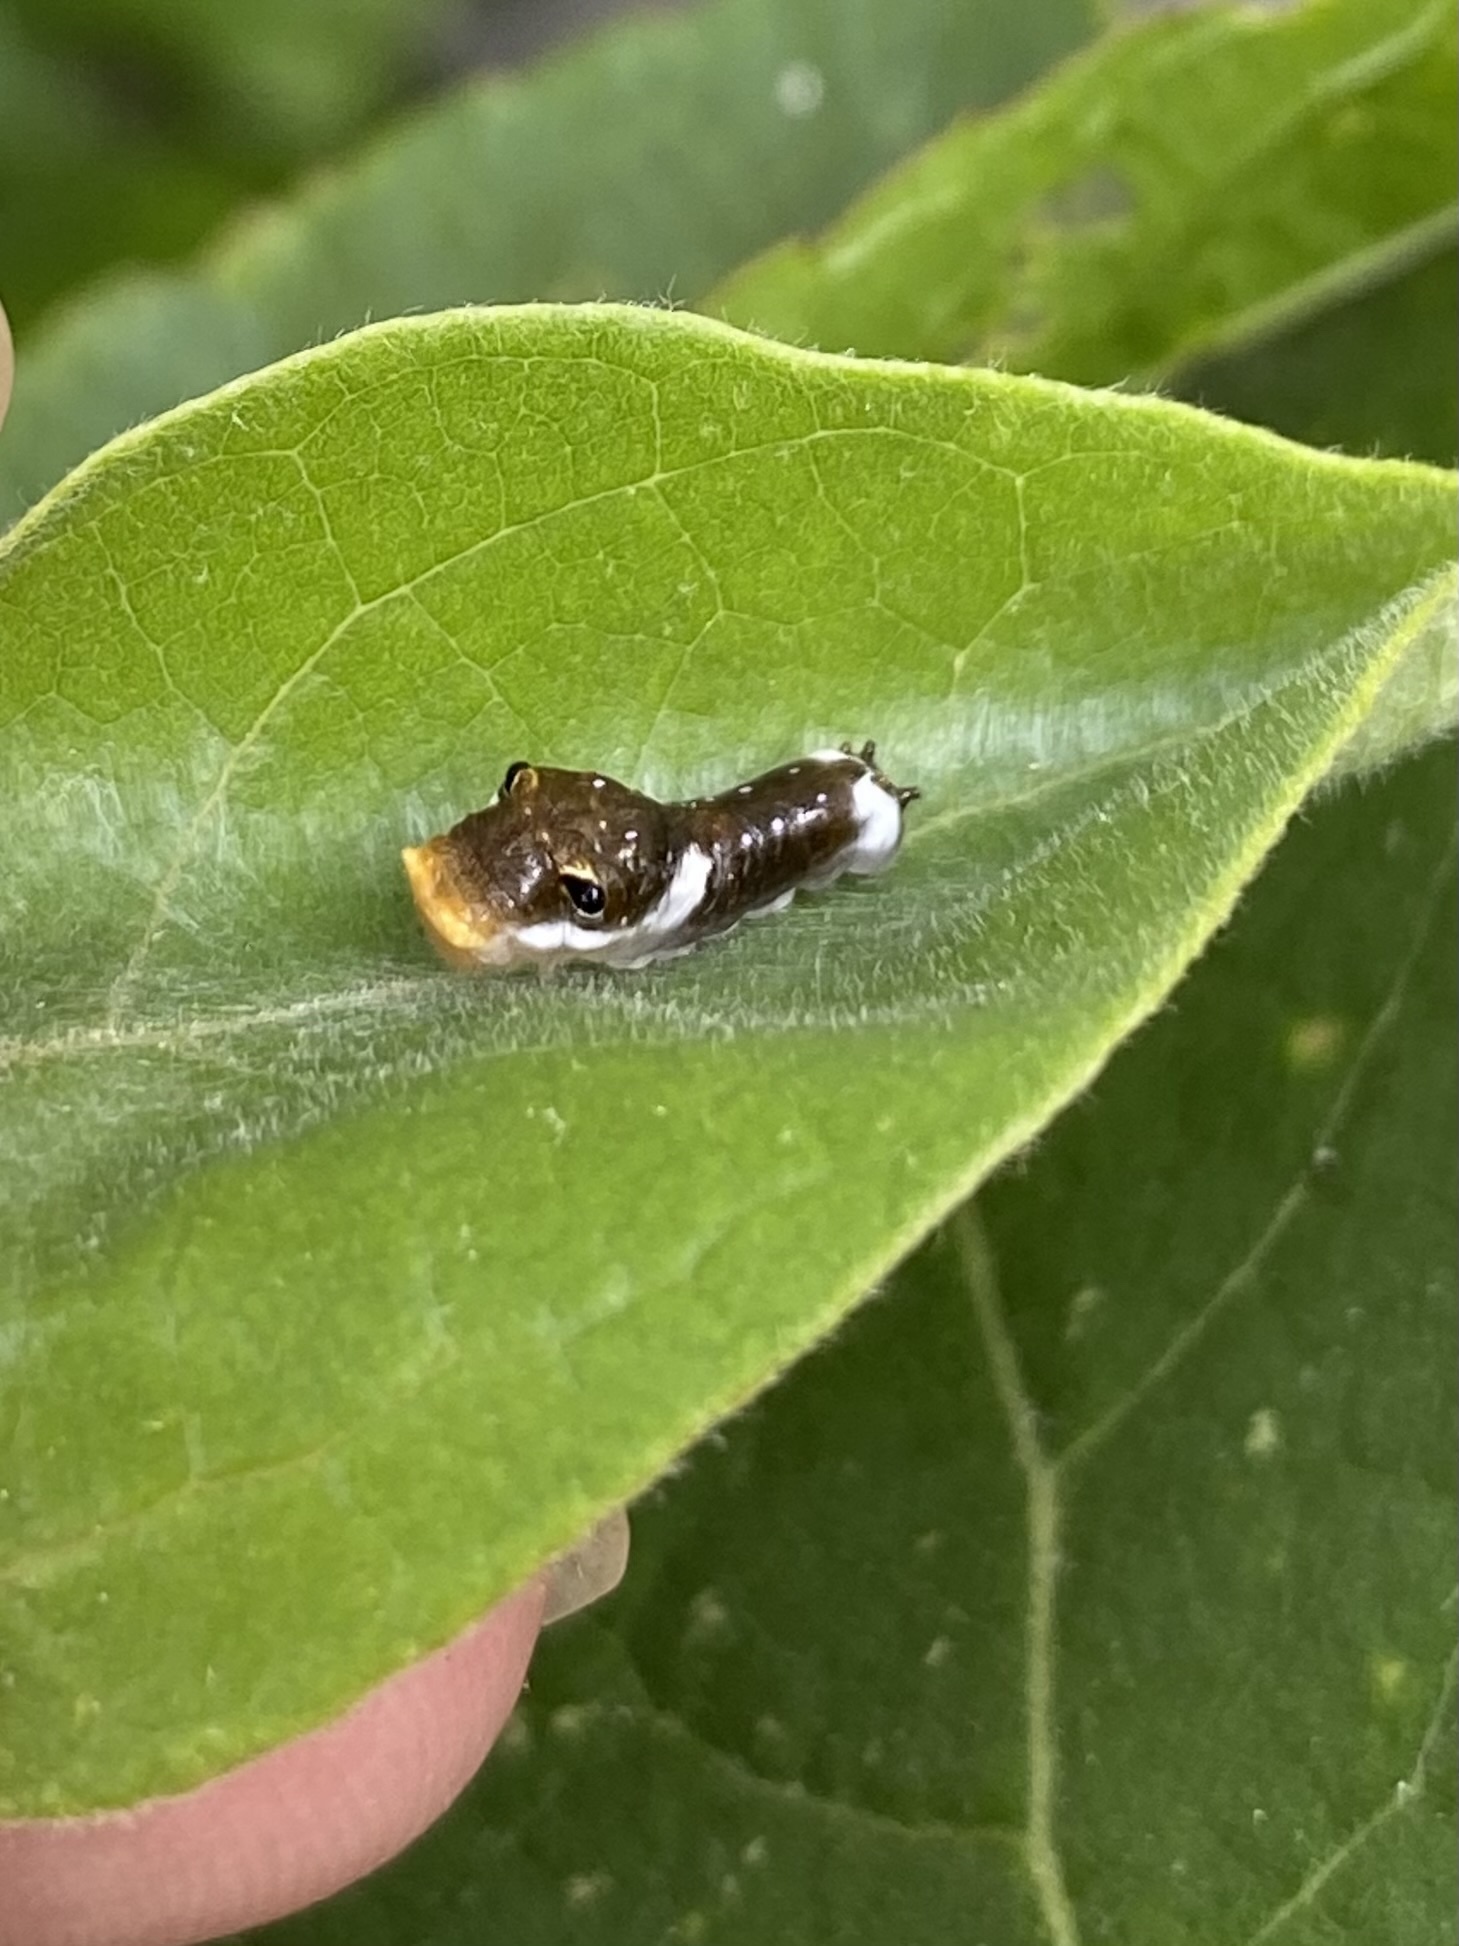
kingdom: Animalia
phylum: Arthropoda
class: Insecta
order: Lepidoptera
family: Papilionidae
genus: Papilio
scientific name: Papilio troilus
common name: Spicebush swallowtail
